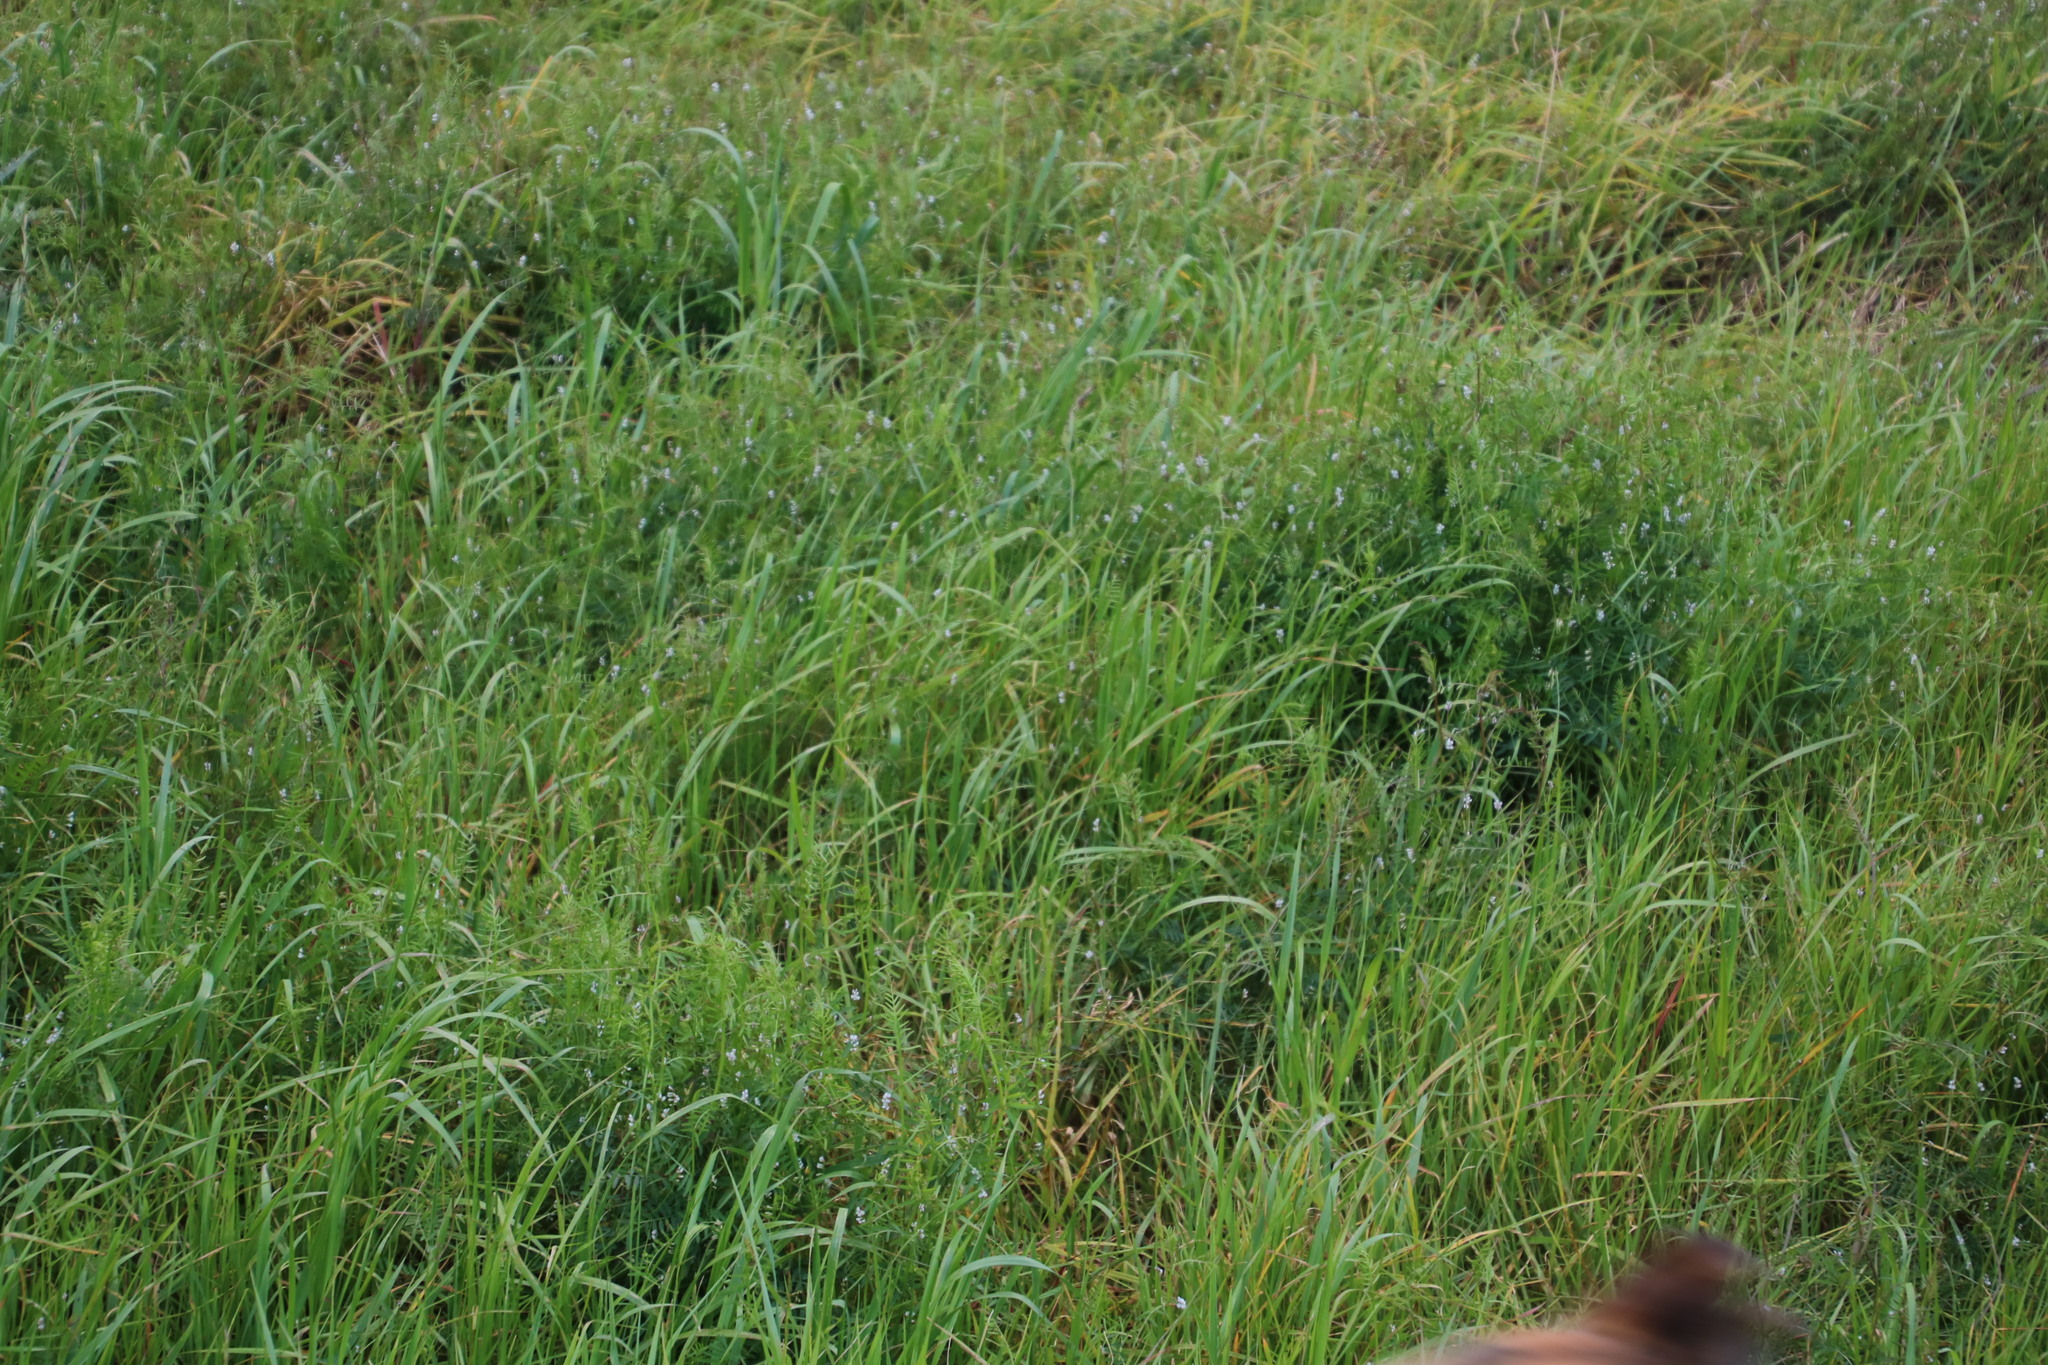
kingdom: Plantae
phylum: Tracheophyta
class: Magnoliopsida
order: Fabales
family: Fabaceae
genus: Vicia
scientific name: Vicia hirsuta
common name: Tiny vetch
